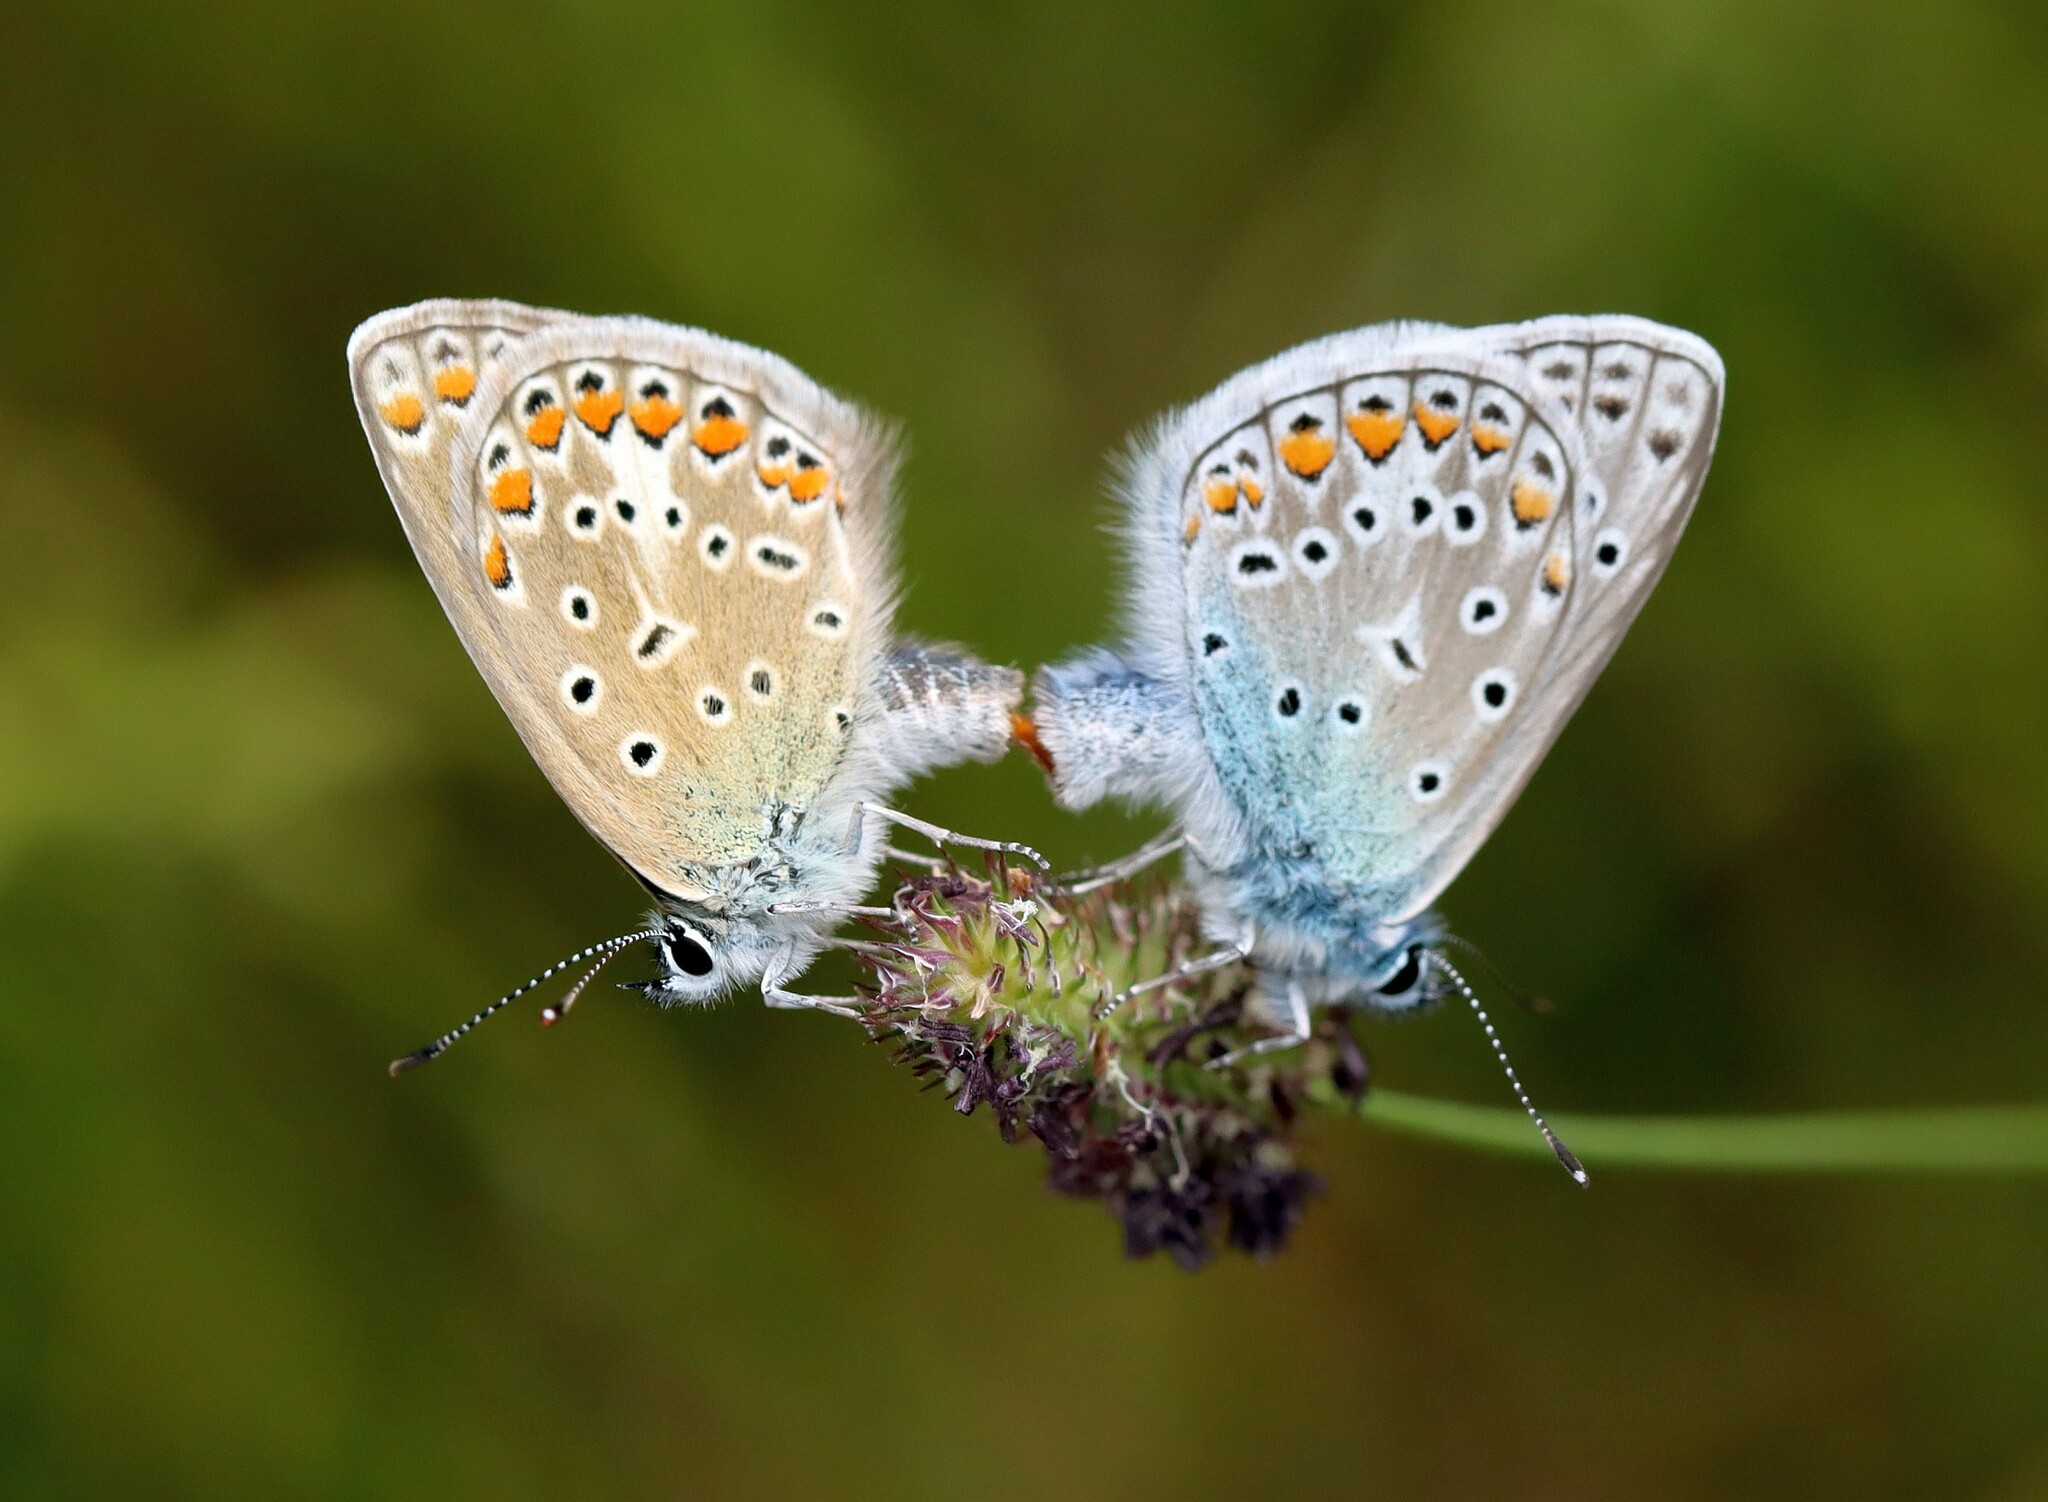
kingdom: Animalia
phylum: Arthropoda
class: Insecta
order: Lepidoptera
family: Lycaenidae
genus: Polyommatus
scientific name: Polyommatus icarus
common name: Common blue
